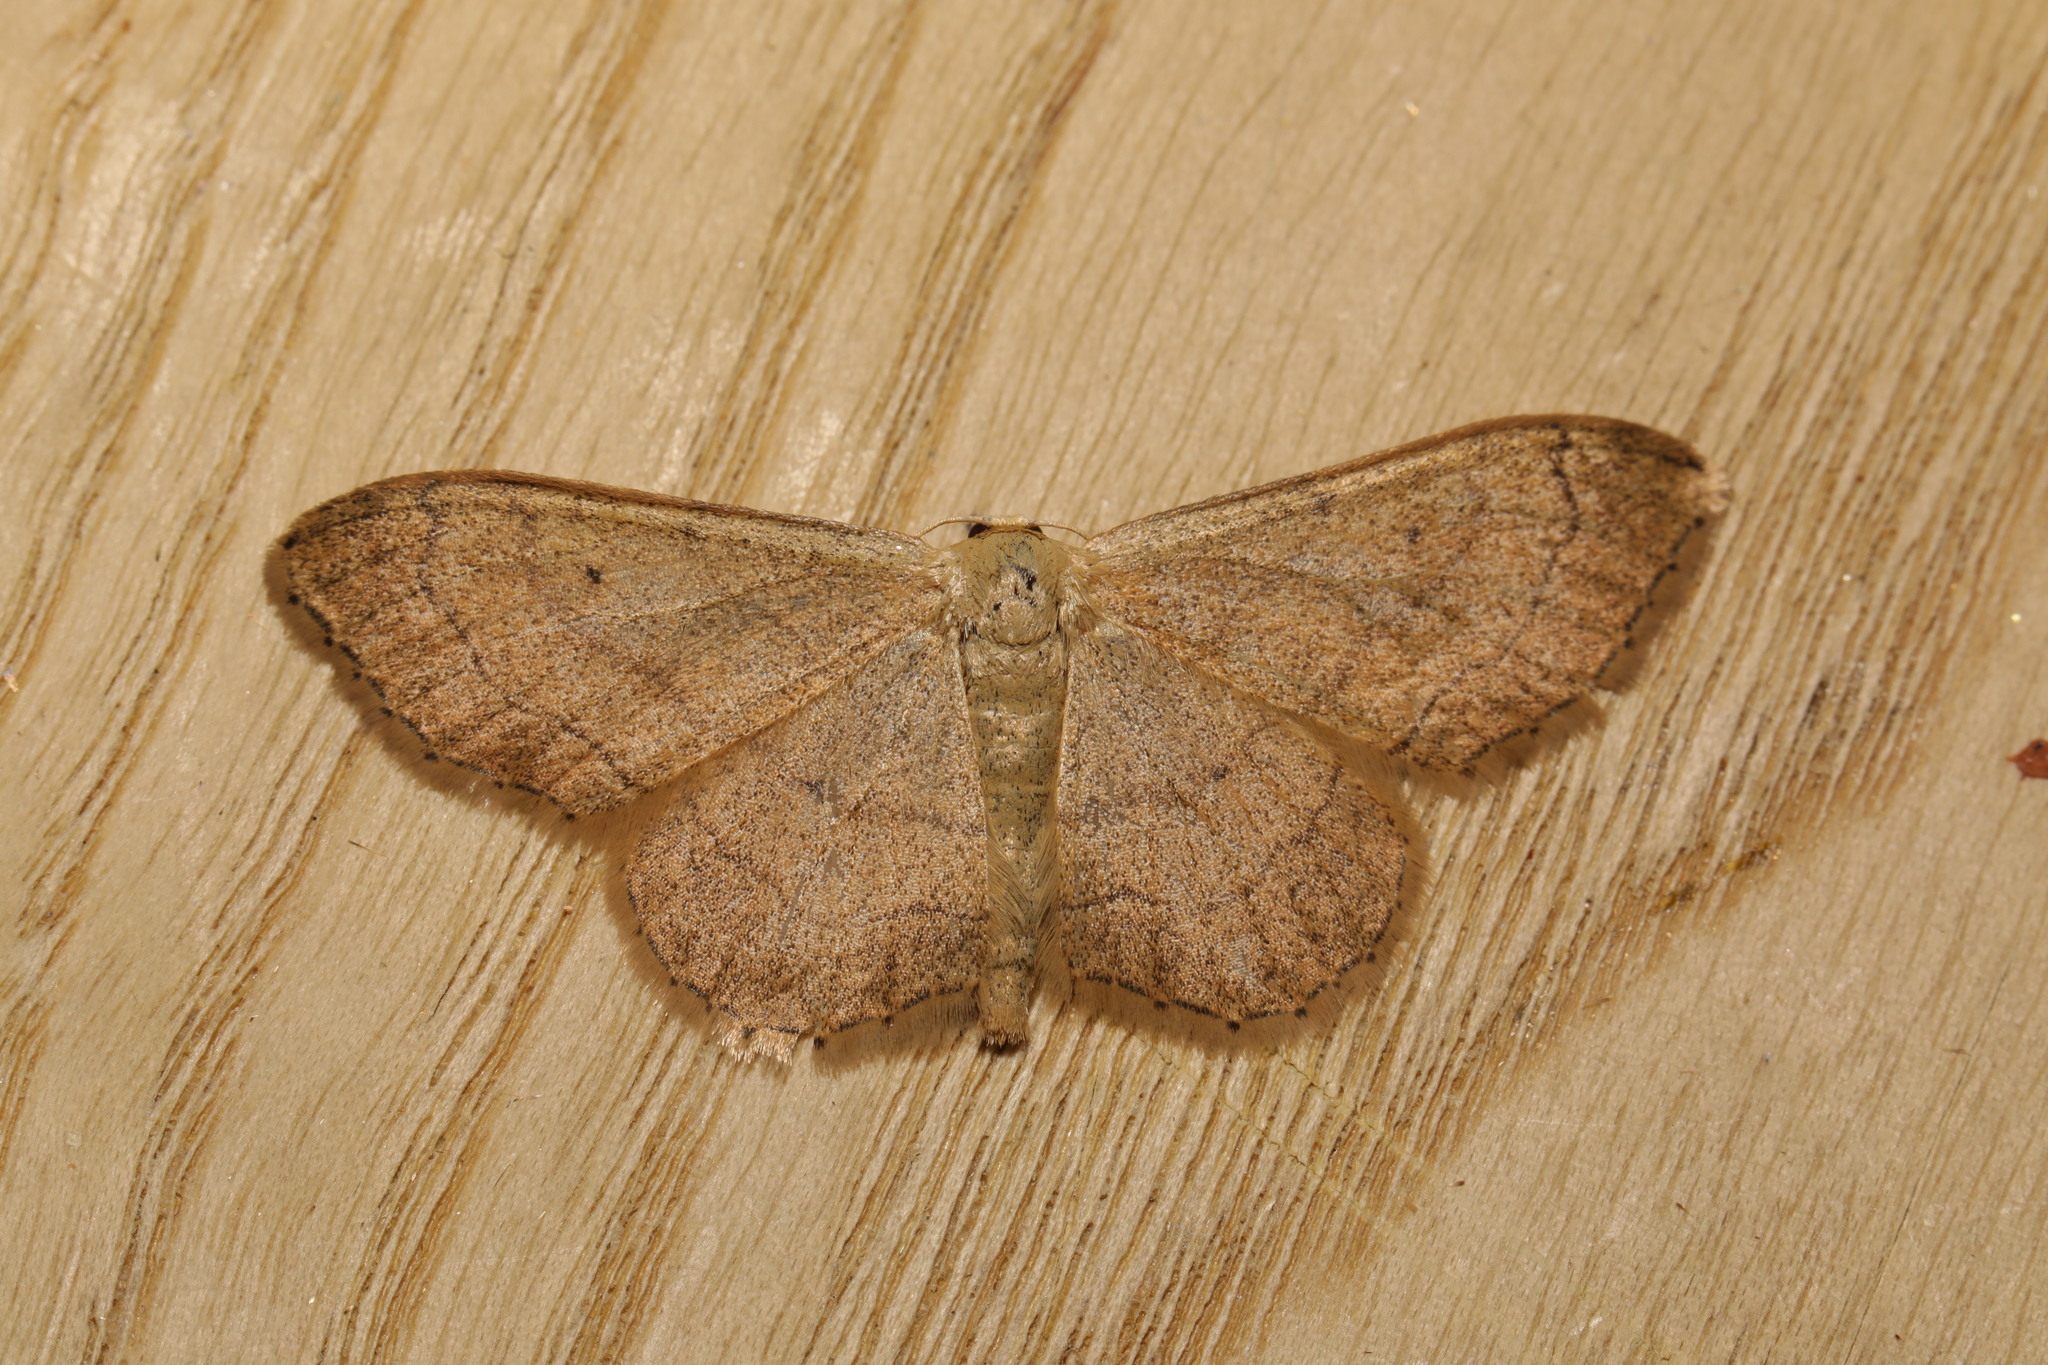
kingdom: Animalia
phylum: Arthropoda
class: Insecta
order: Lepidoptera
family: Geometridae
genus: Idaea
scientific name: Idaea aversata
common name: Riband wave
